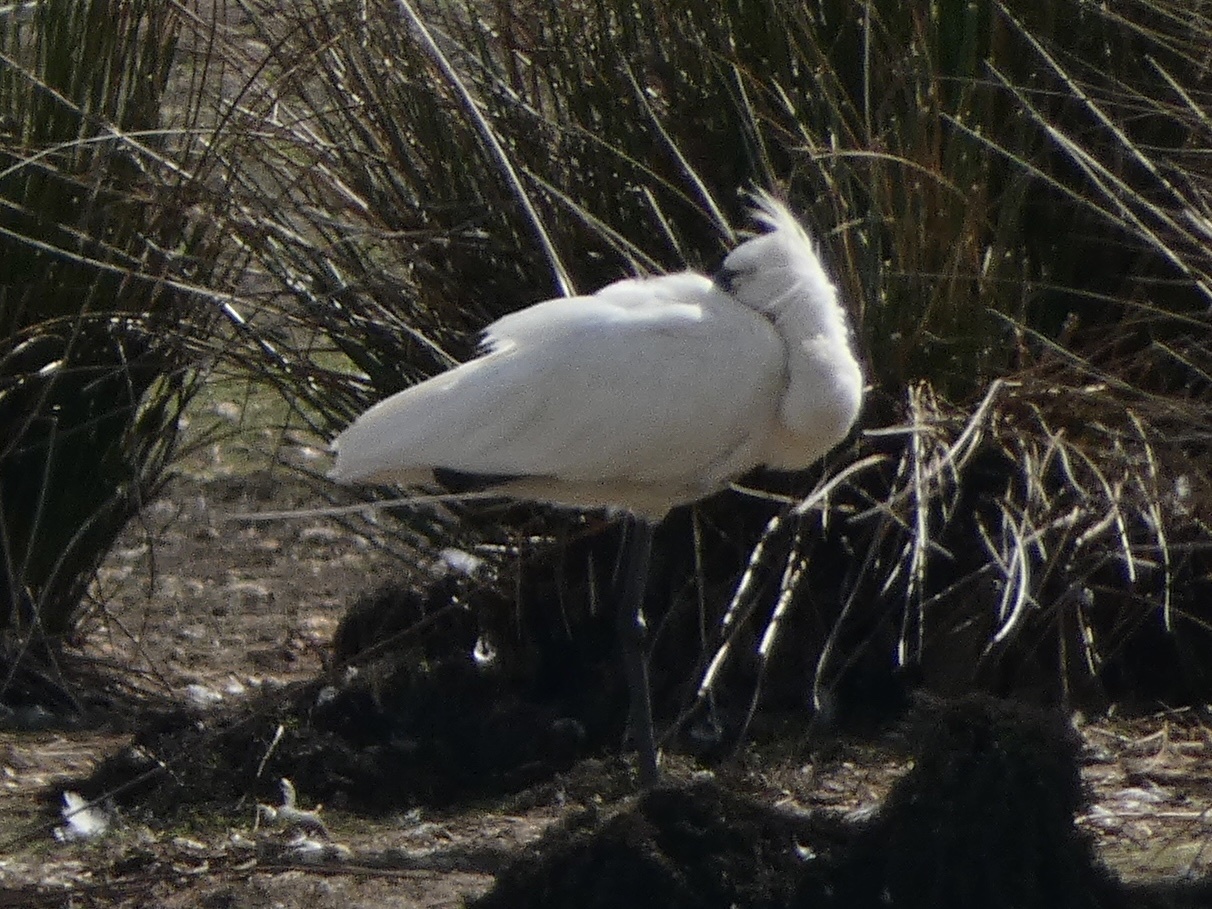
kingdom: Animalia
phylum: Chordata
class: Aves
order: Pelecaniformes
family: Threskiornithidae
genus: Platalea
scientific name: Platalea leucorodia
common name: Eurasian spoonbill
